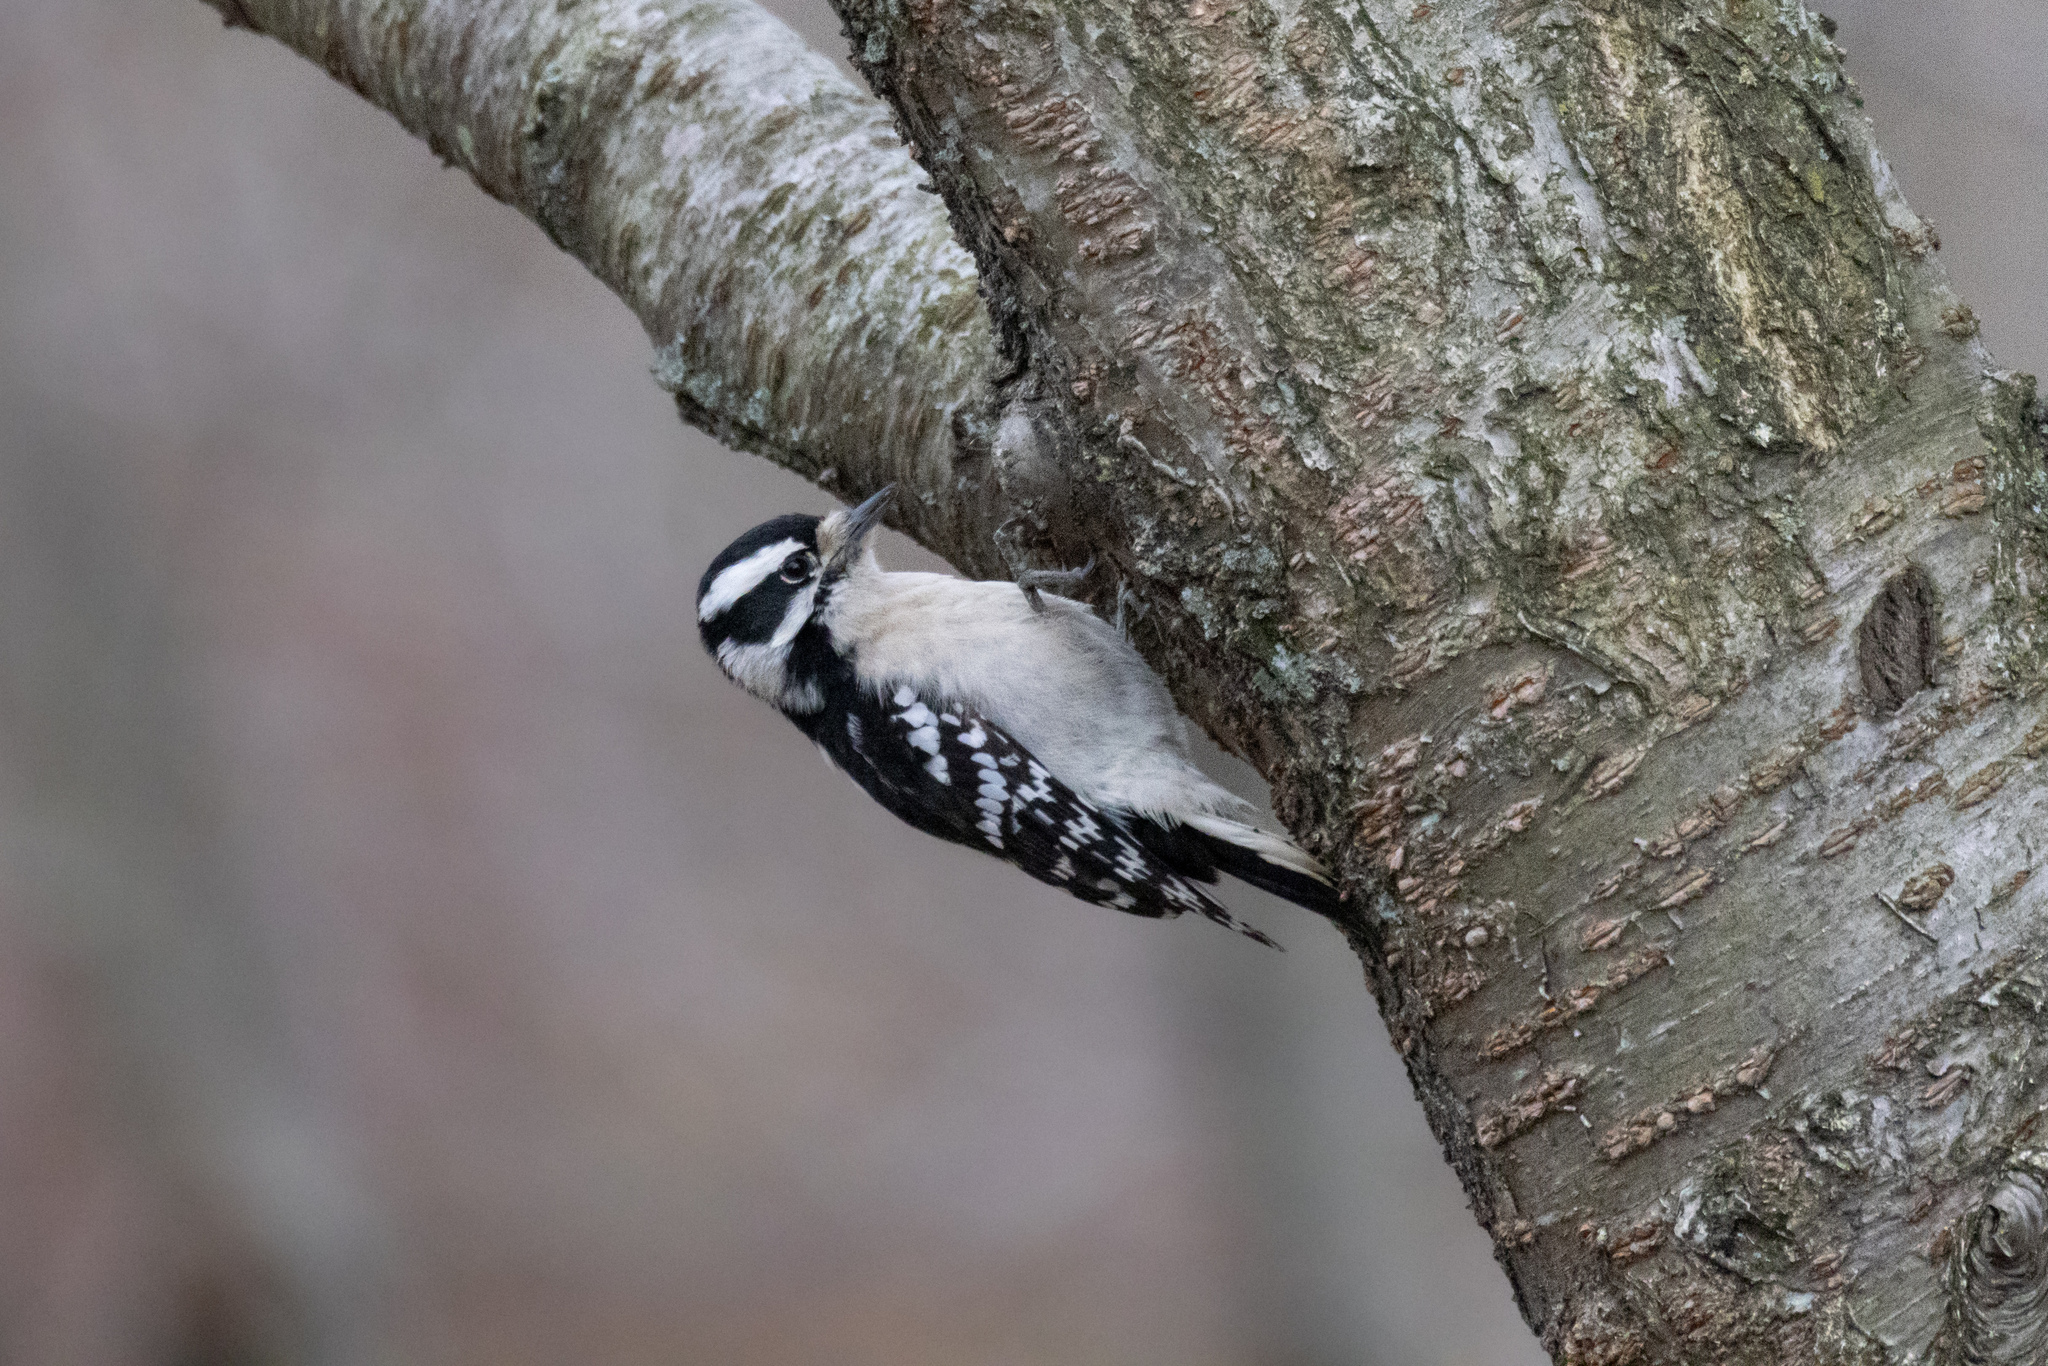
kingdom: Animalia
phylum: Chordata
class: Aves
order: Piciformes
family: Picidae
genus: Dryobates
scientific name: Dryobates pubescens
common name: Downy woodpecker
